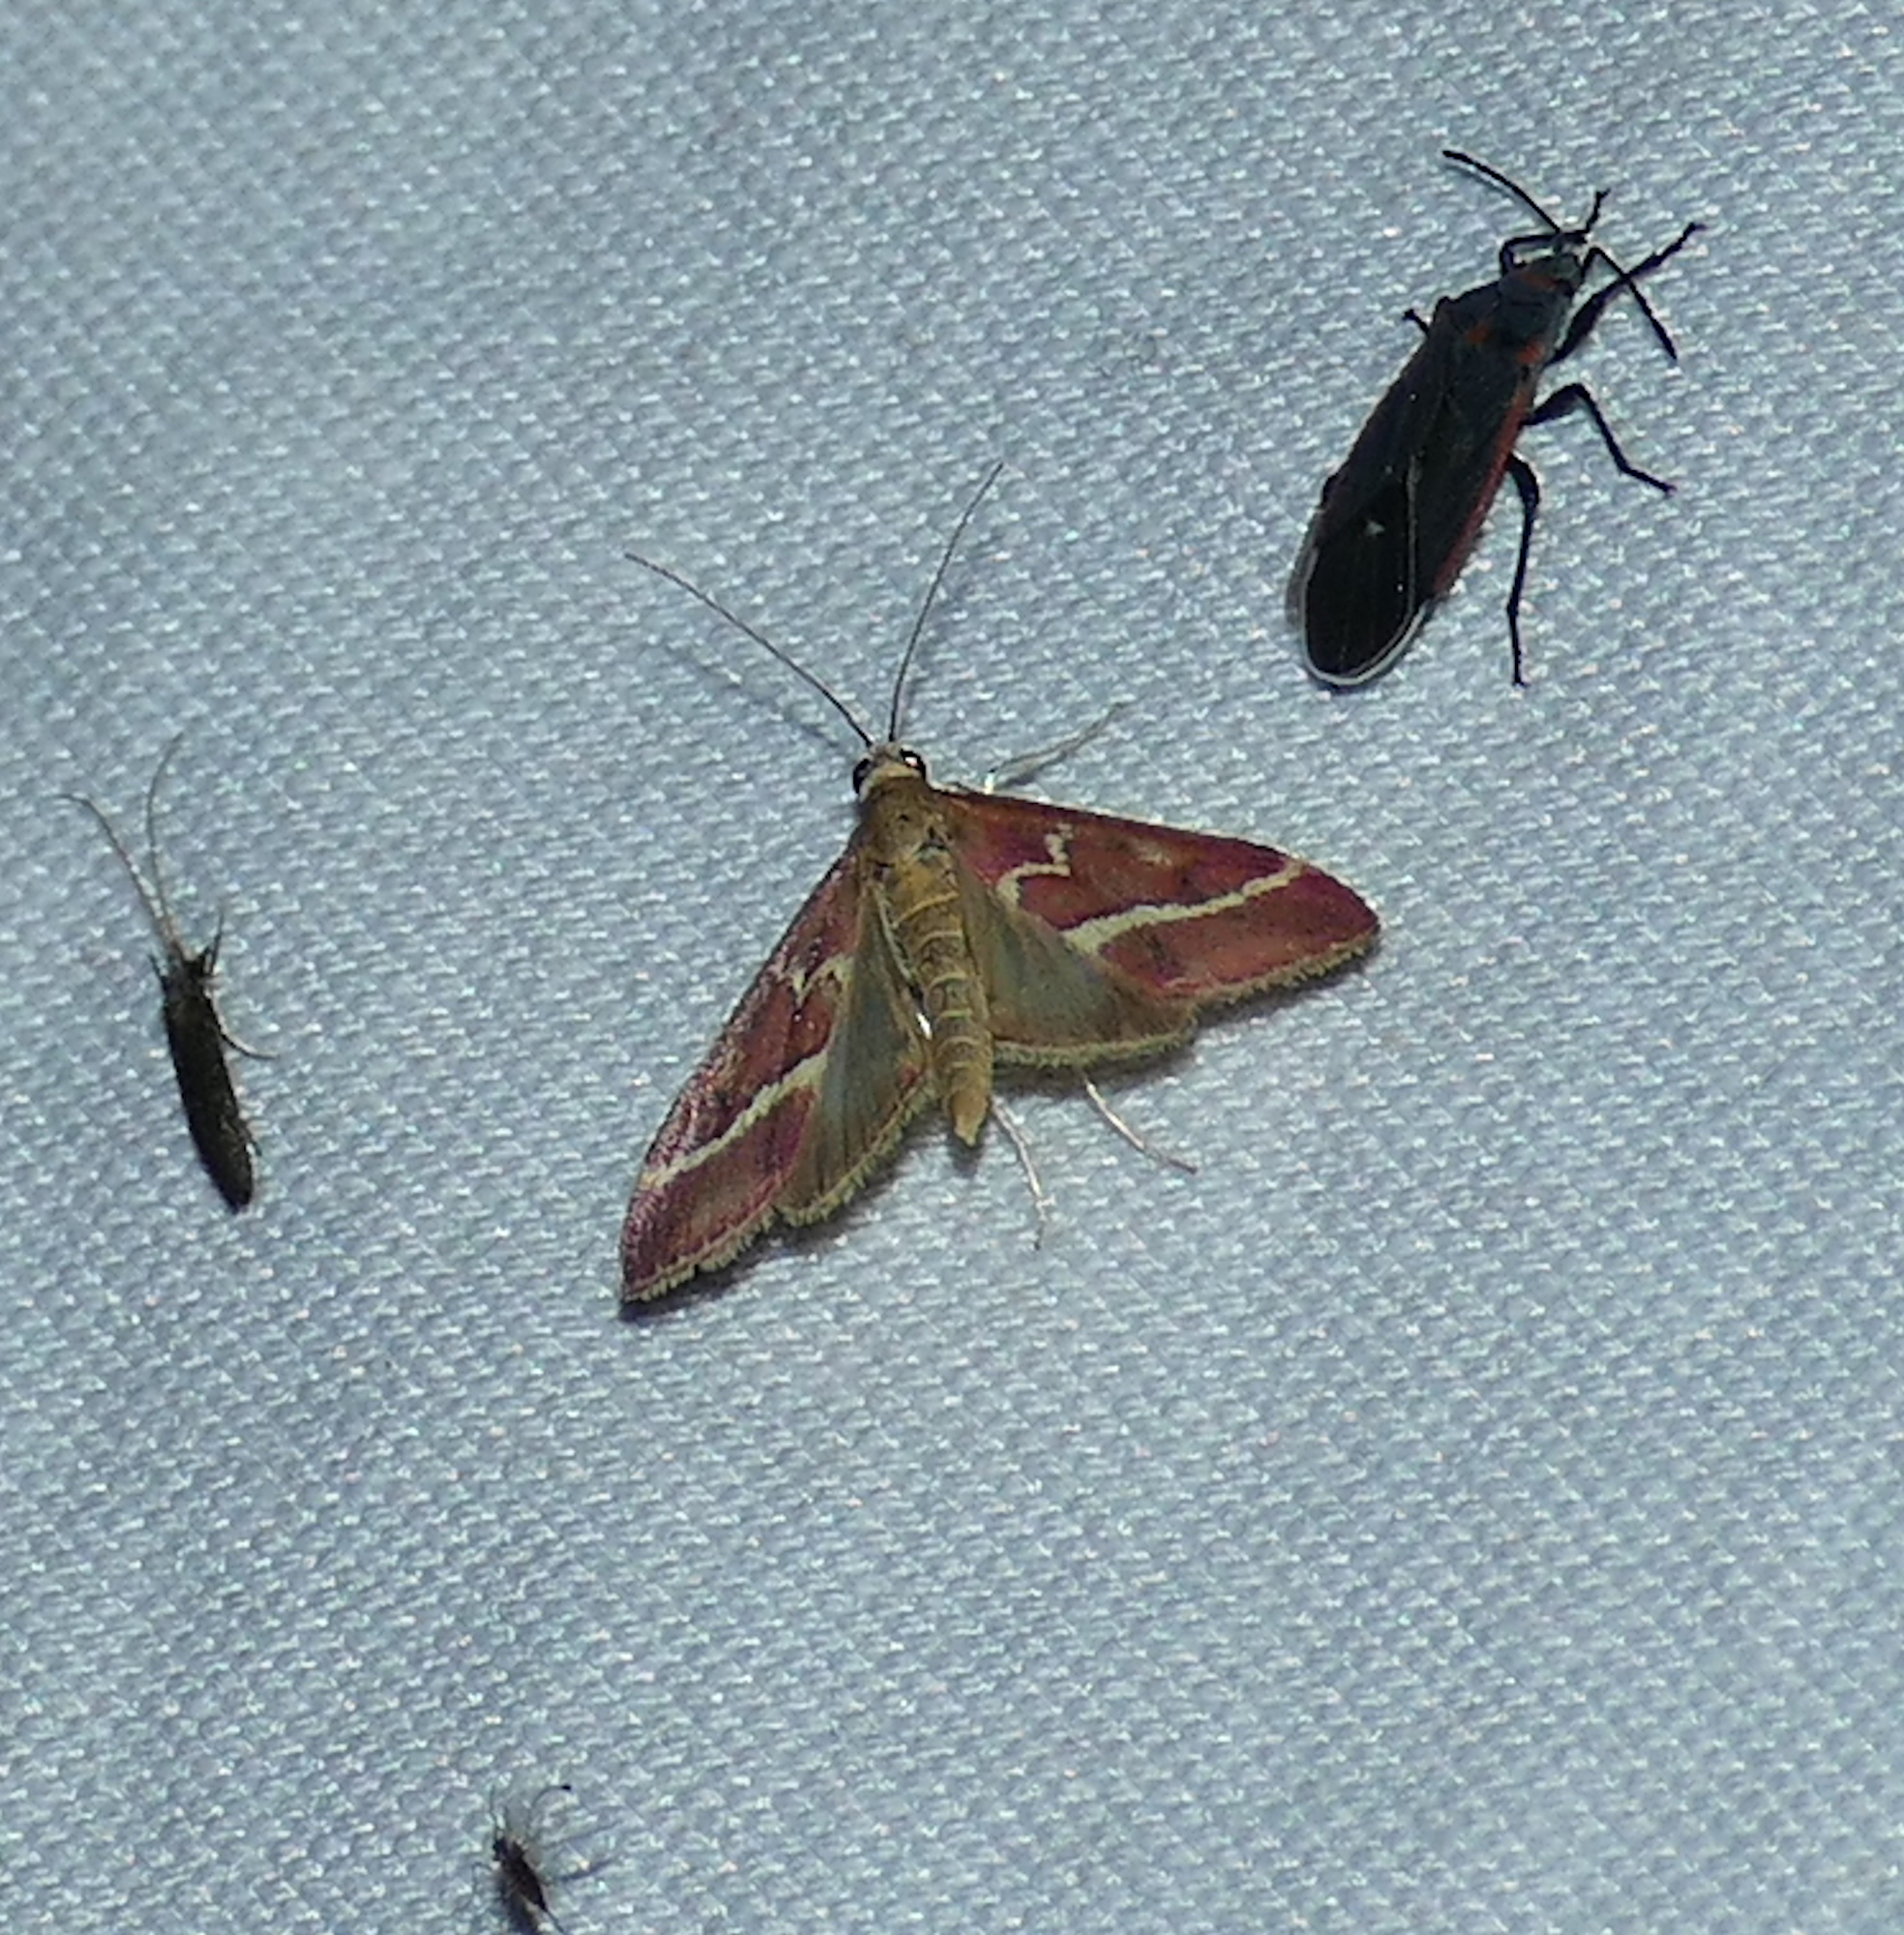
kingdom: Animalia
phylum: Arthropoda
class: Insecta
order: Lepidoptera
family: Crambidae
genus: Pyrausta
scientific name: Pyrausta volupialis
